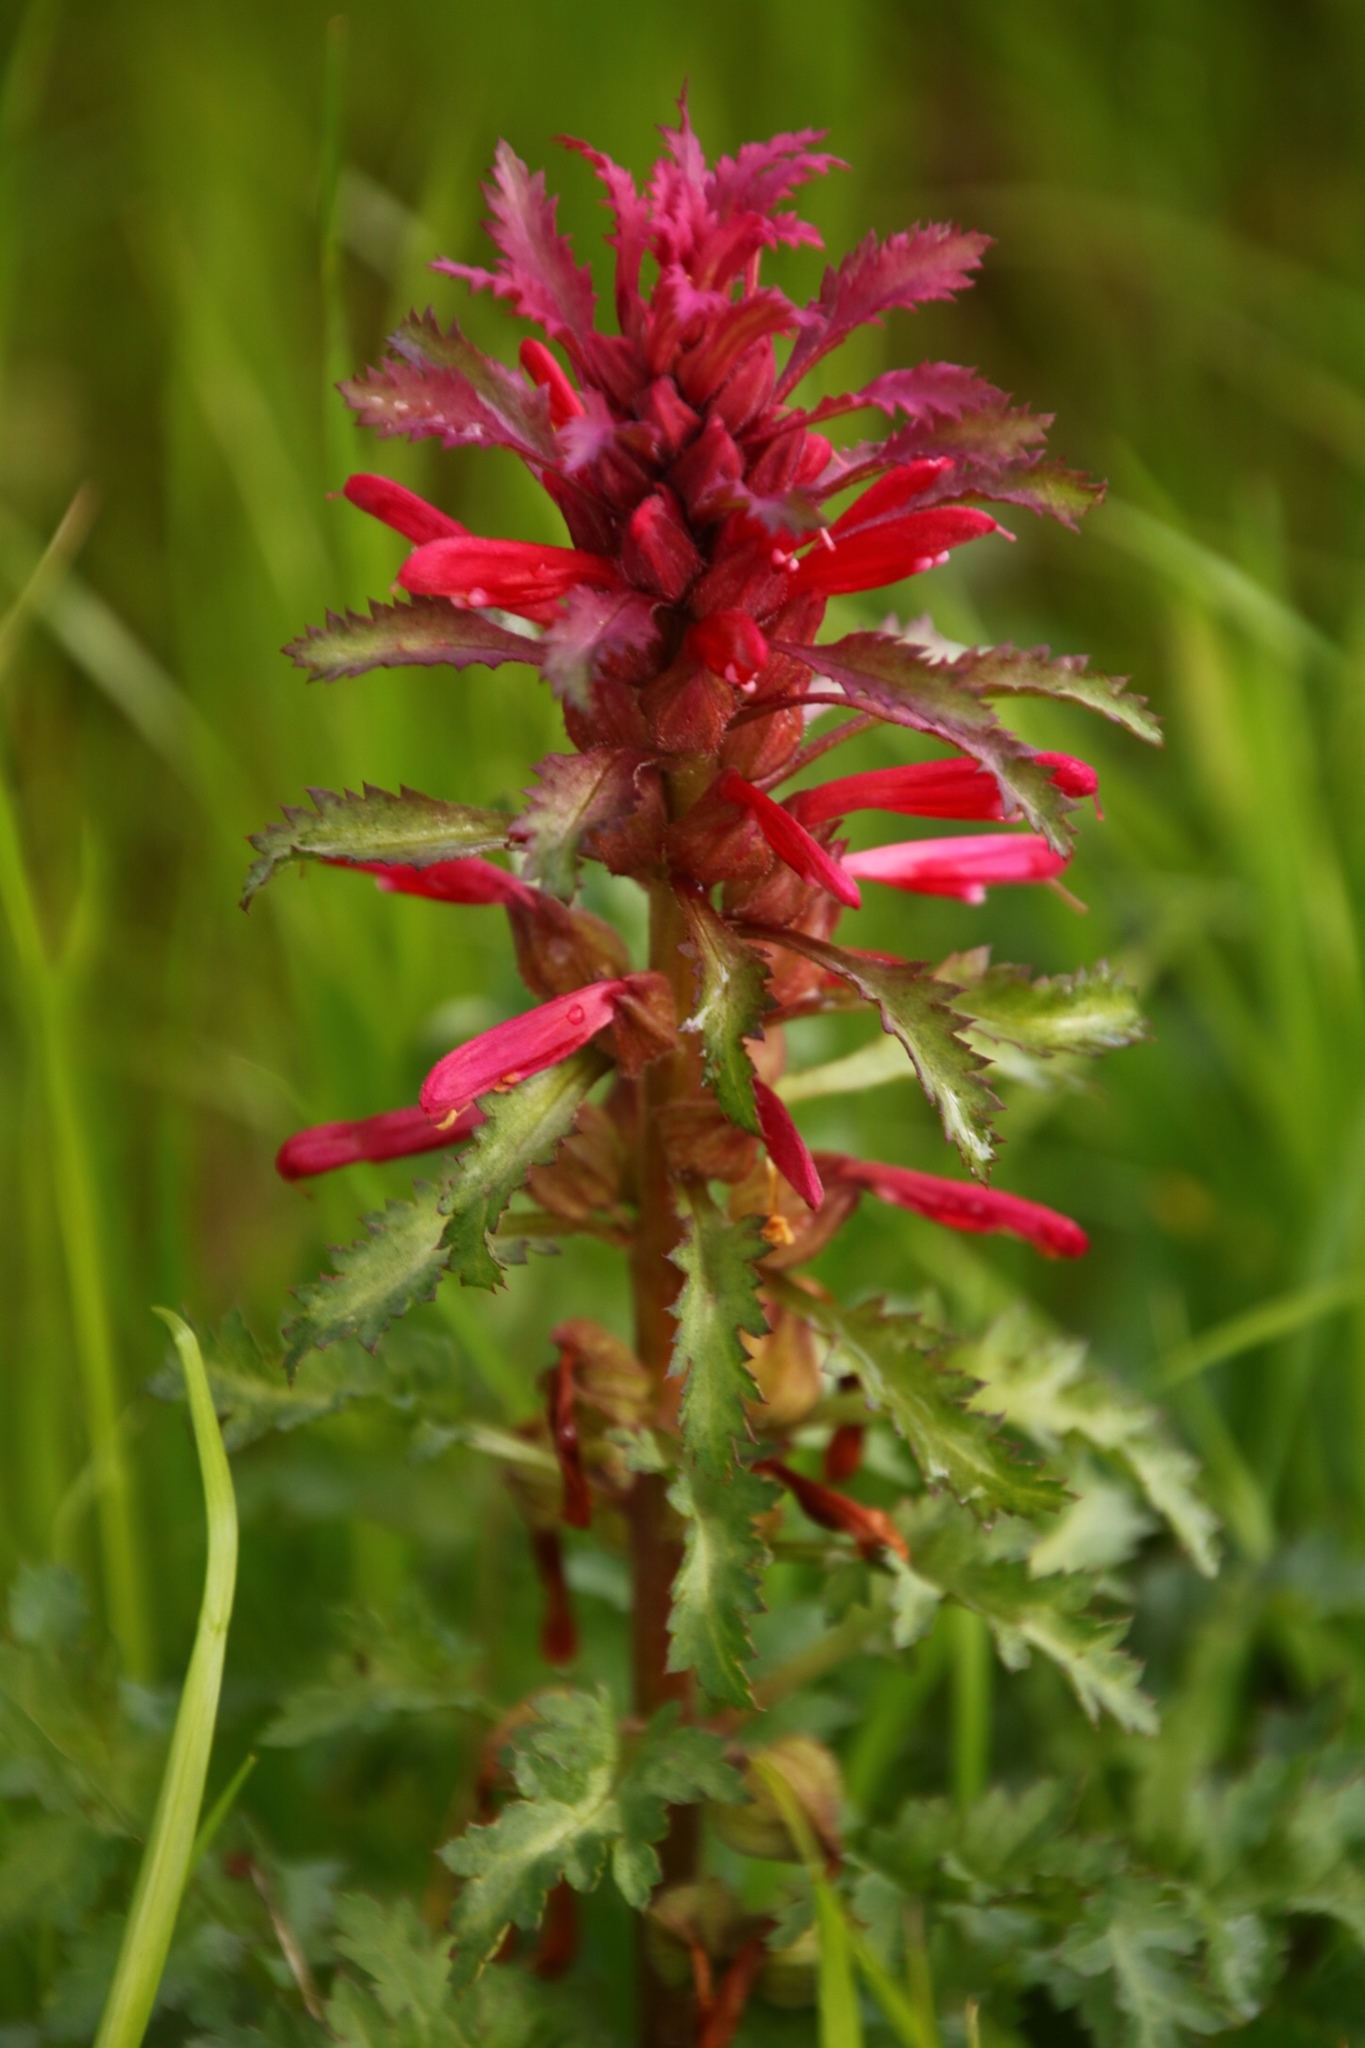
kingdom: Plantae
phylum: Tracheophyta
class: Magnoliopsida
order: Lamiales
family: Orobanchaceae
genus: Pedicularis
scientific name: Pedicularis densiflora
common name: Indian warrior
